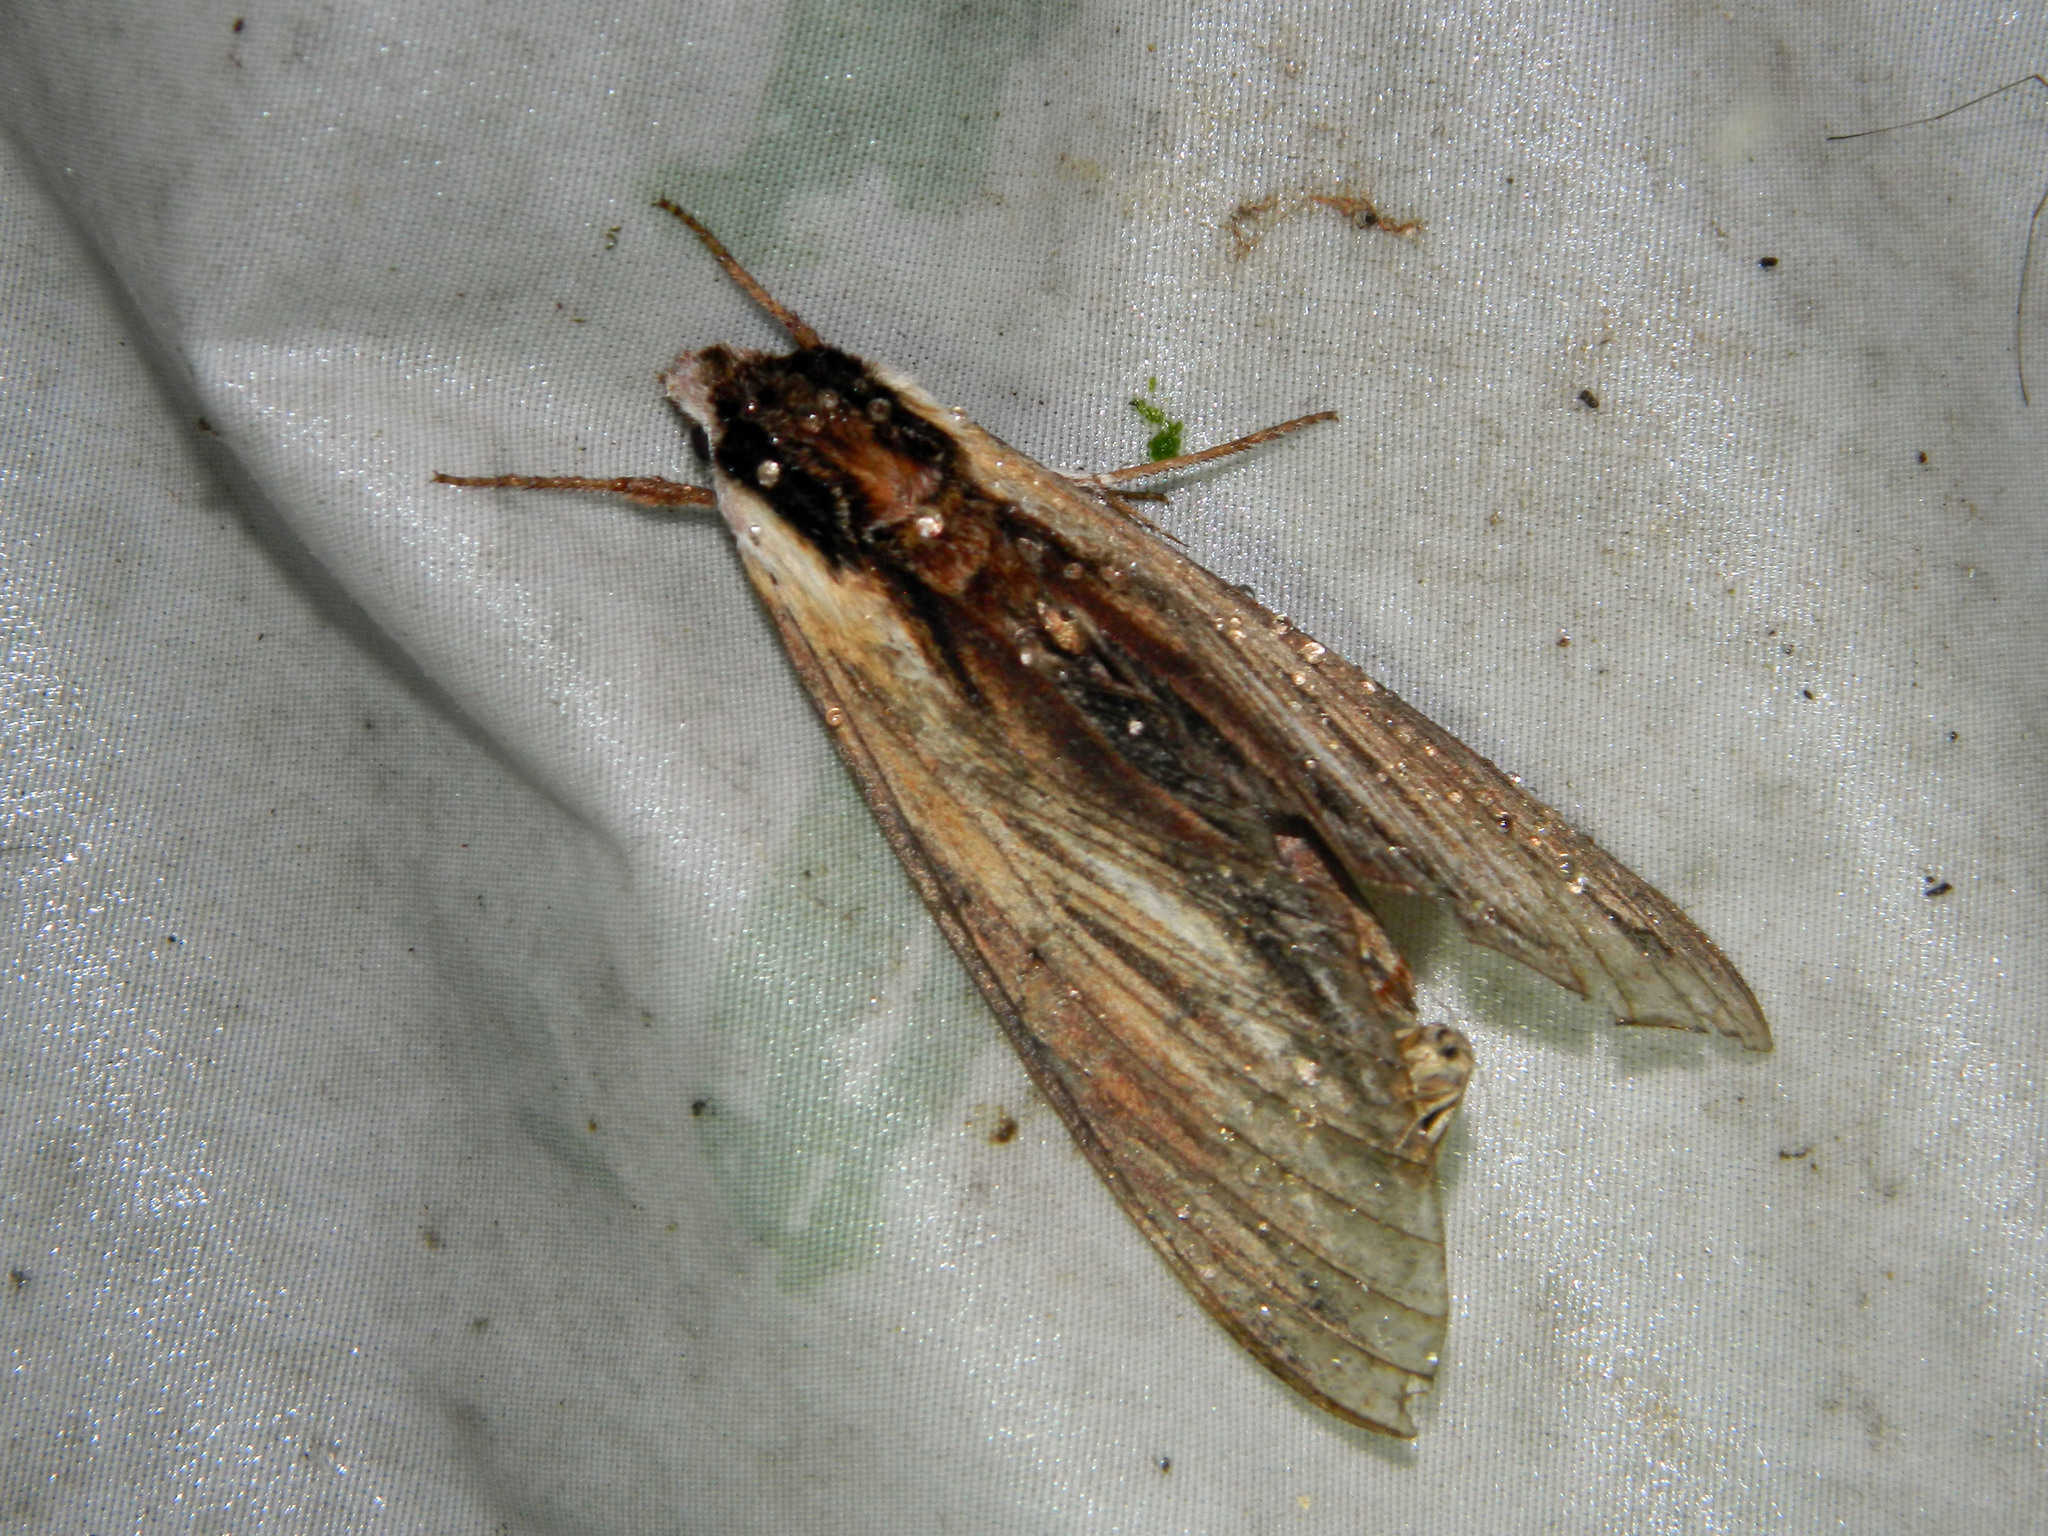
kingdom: Animalia
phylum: Arthropoda
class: Insecta
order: Lepidoptera
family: Sphingidae
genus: Sphinx
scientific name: Sphinx kalmiae
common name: Laurel sphinx
